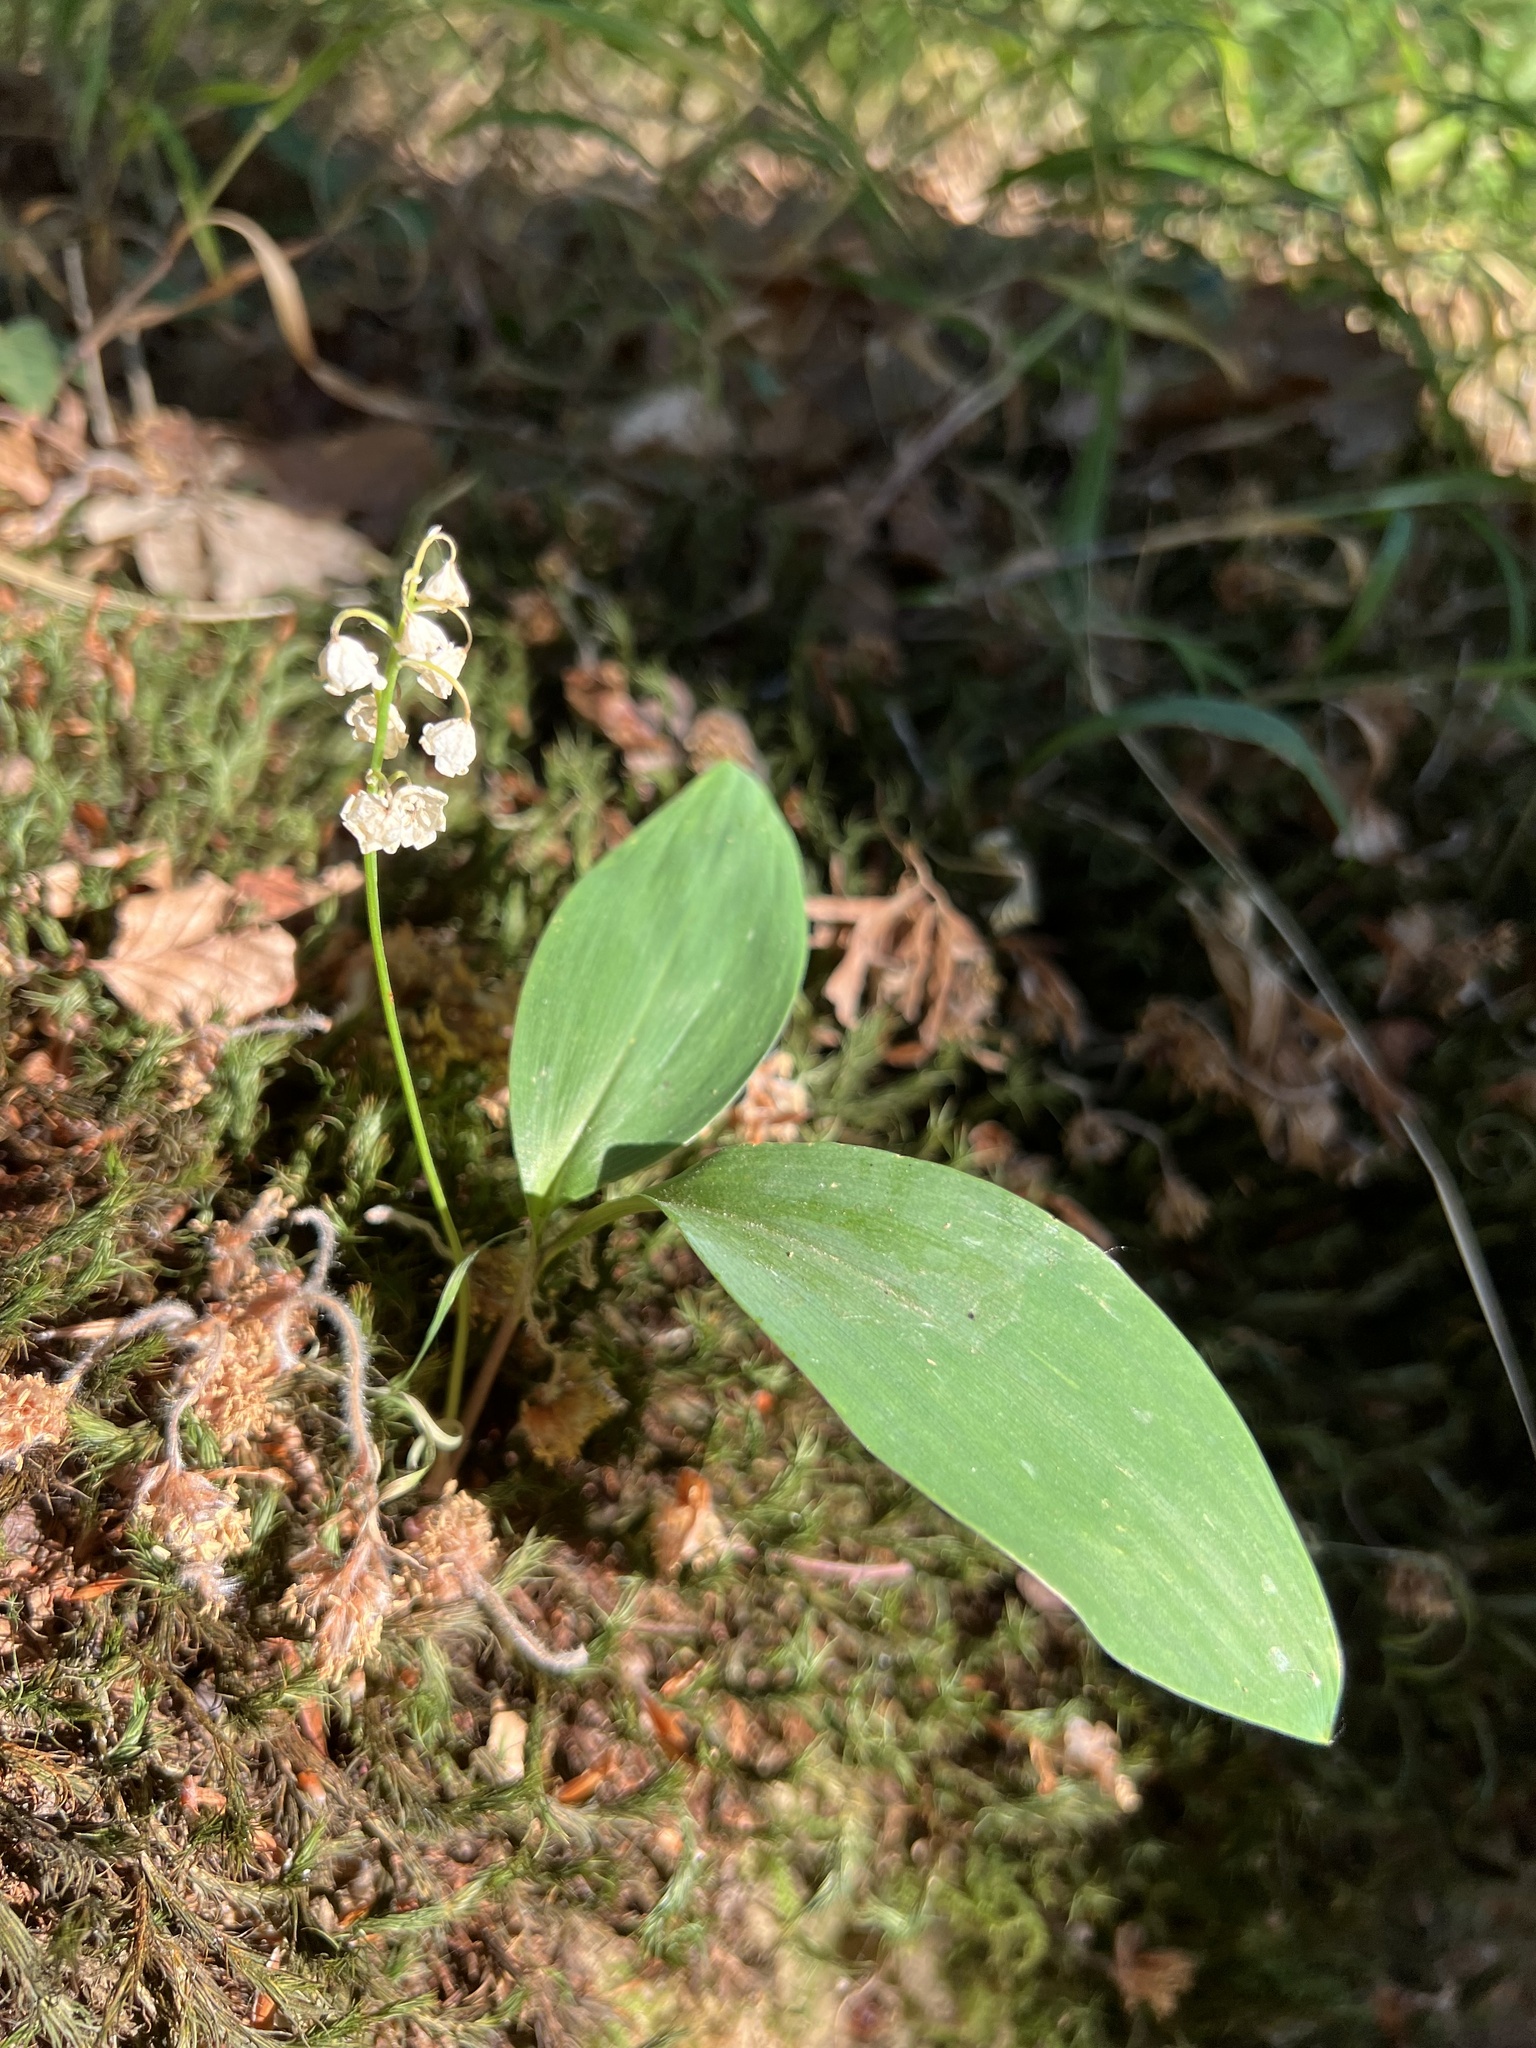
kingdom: Plantae
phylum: Tracheophyta
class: Liliopsida
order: Asparagales
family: Asparagaceae
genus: Convallaria
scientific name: Convallaria majalis
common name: Lily-of-the-valley
